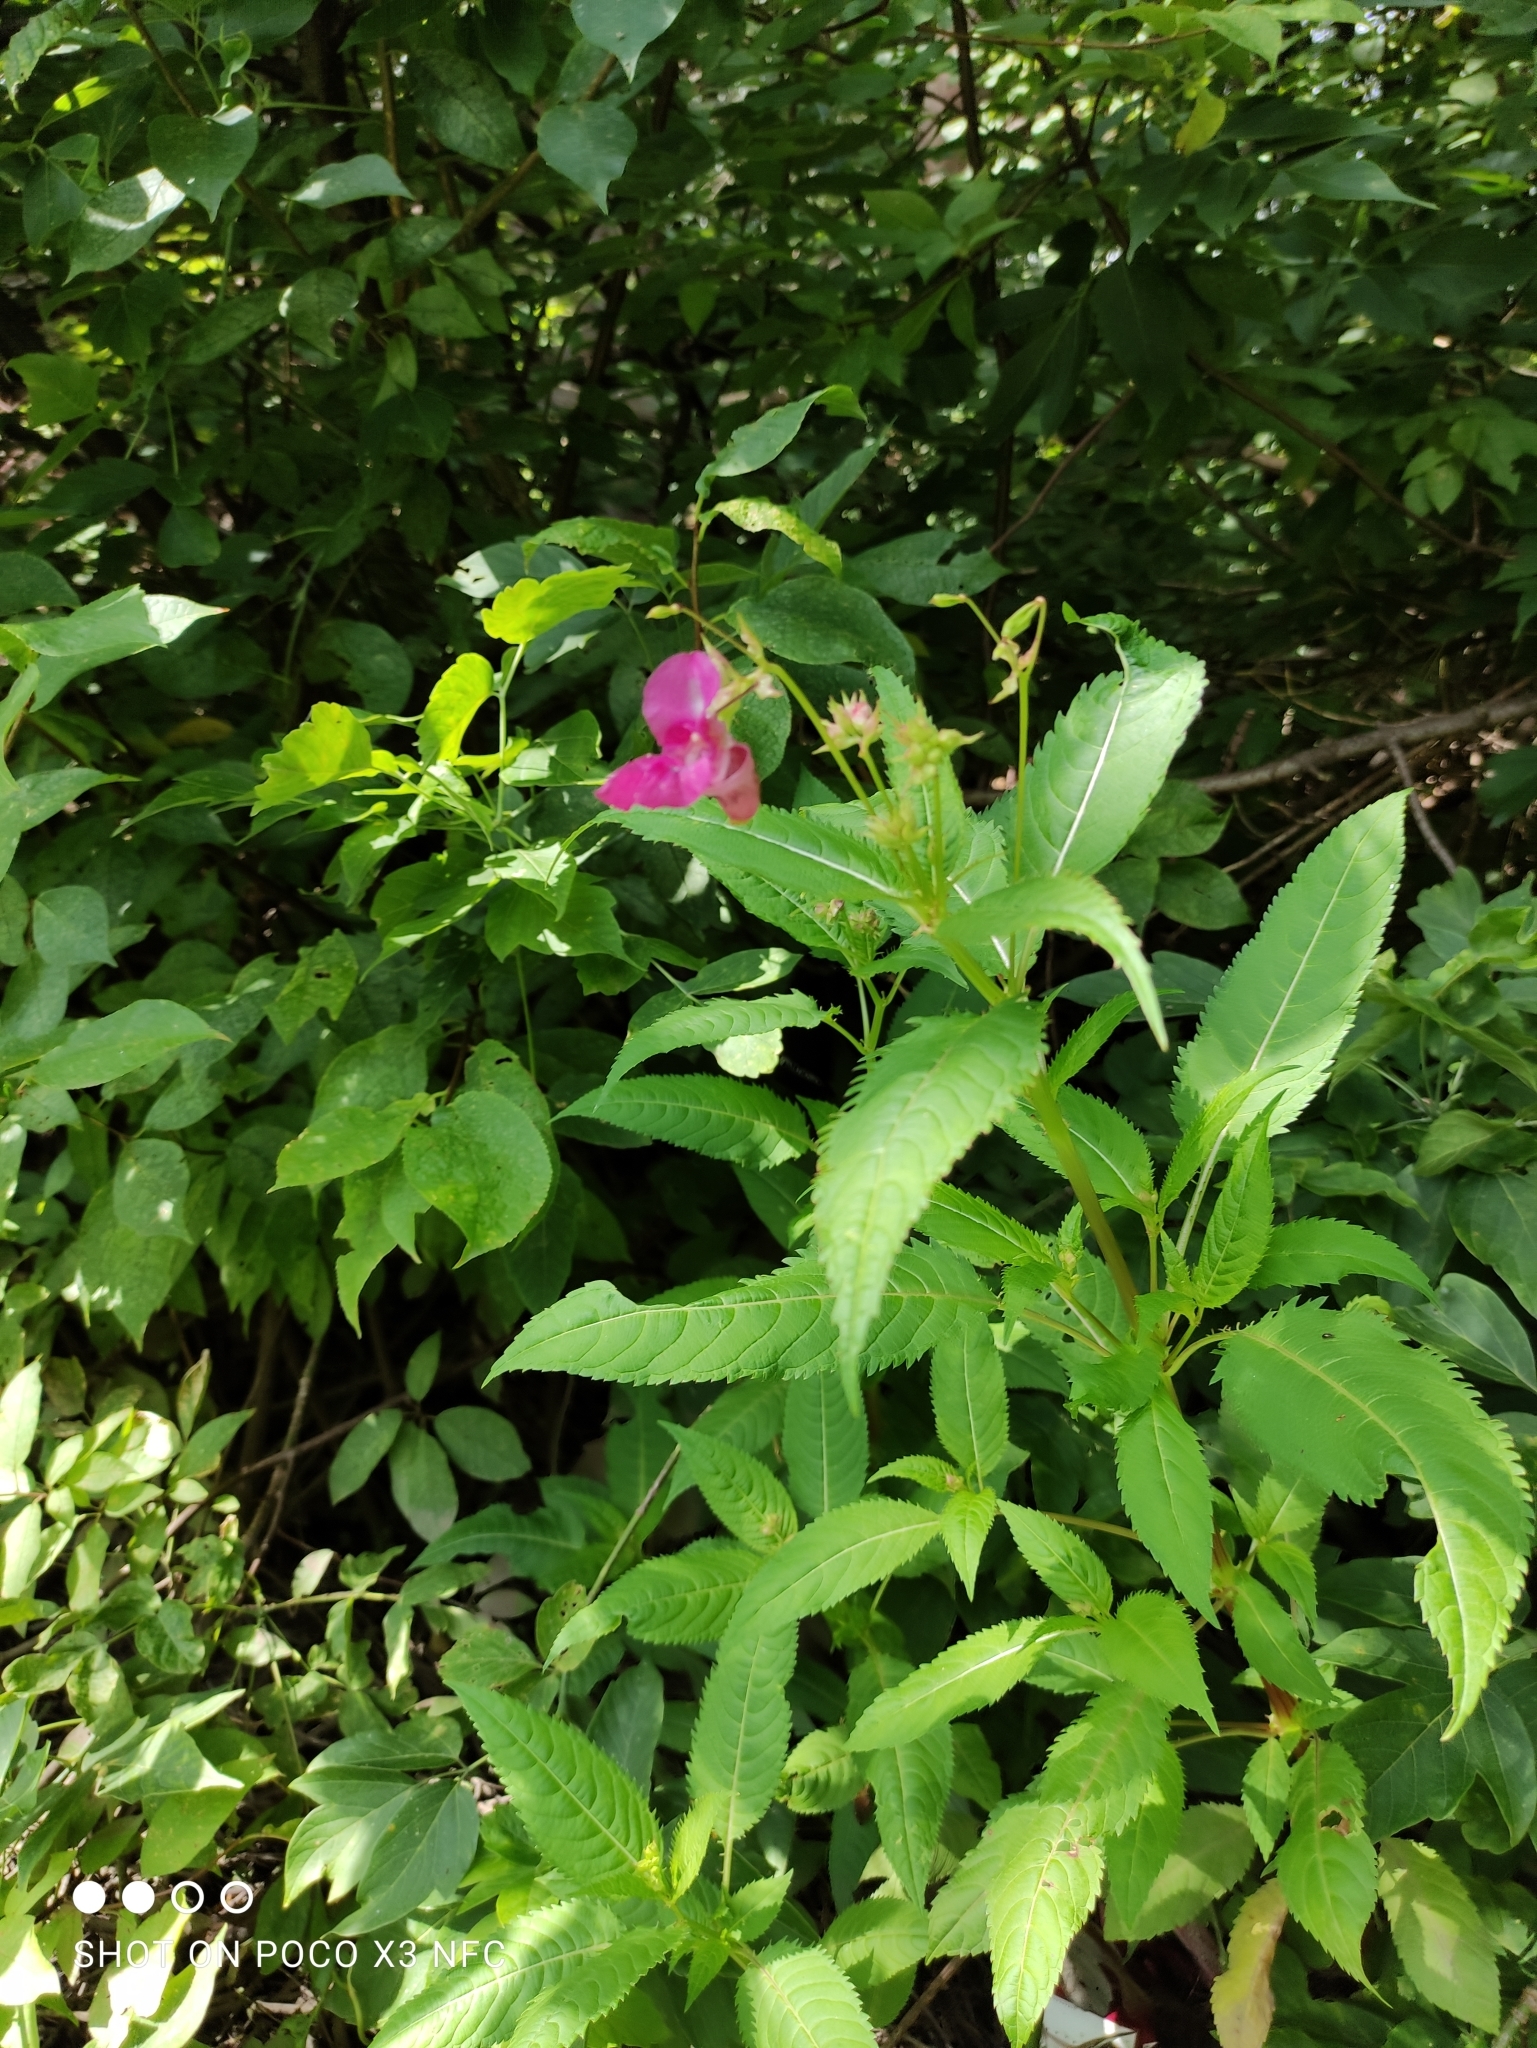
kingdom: Plantae
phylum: Tracheophyta
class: Magnoliopsida
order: Ericales
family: Balsaminaceae
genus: Impatiens
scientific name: Impatiens glandulifera
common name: Himalayan balsam
